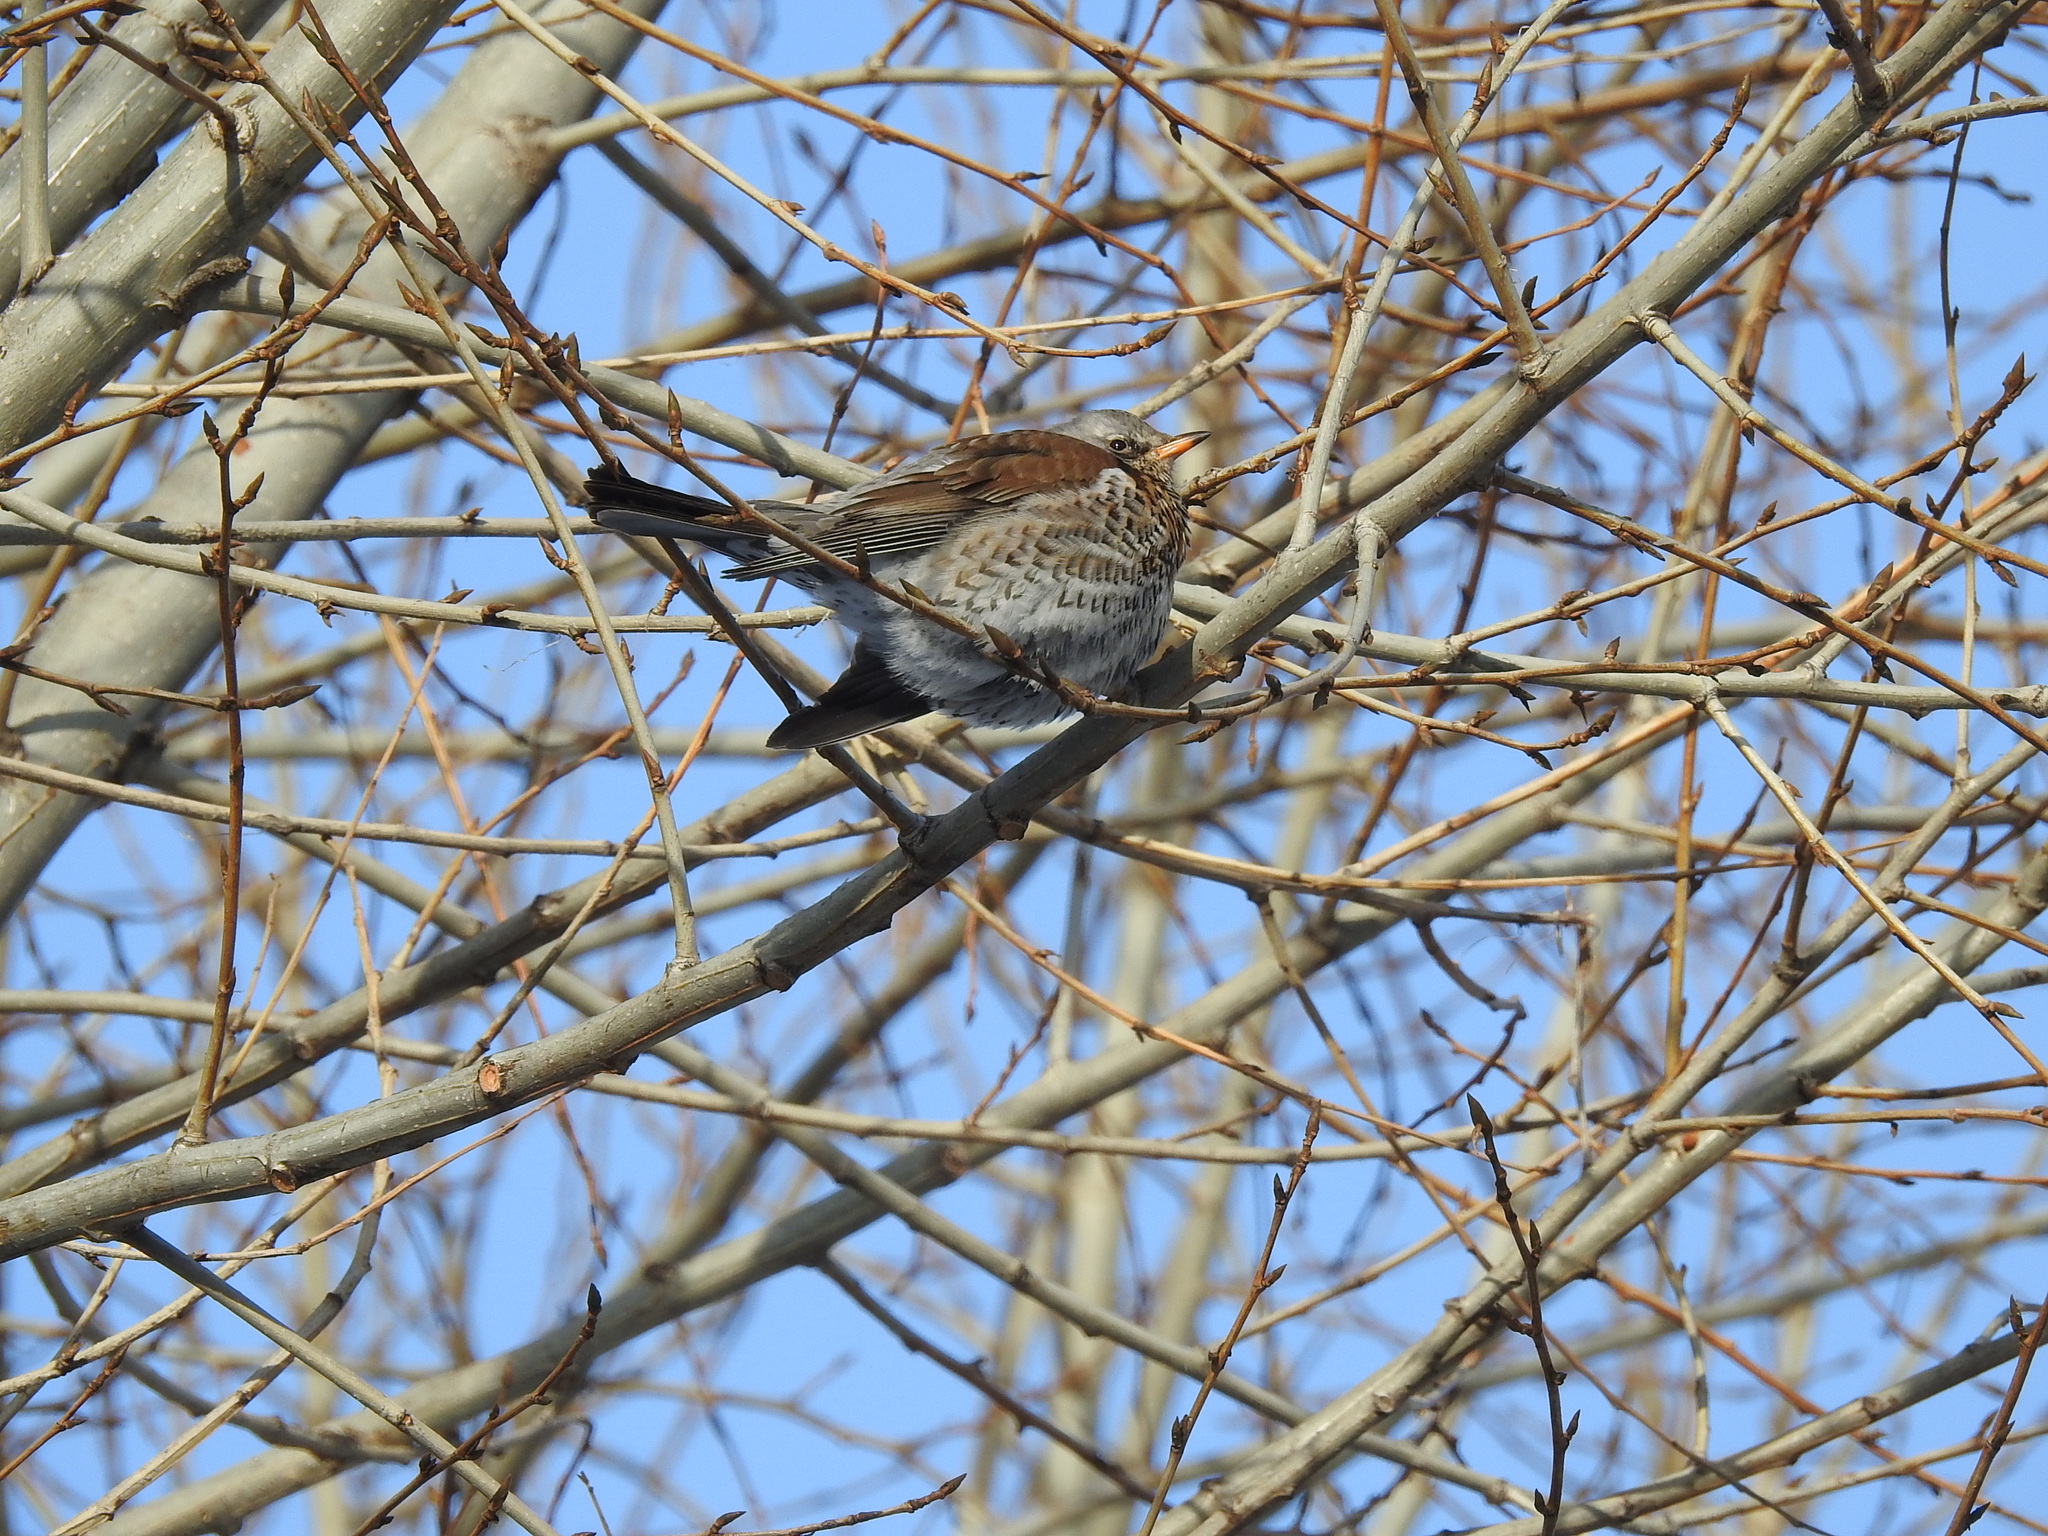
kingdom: Animalia
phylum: Chordata
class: Aves
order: Passeriformes
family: Turdidae
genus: Turdus
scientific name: Turdus pilaris
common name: Fieldfare
